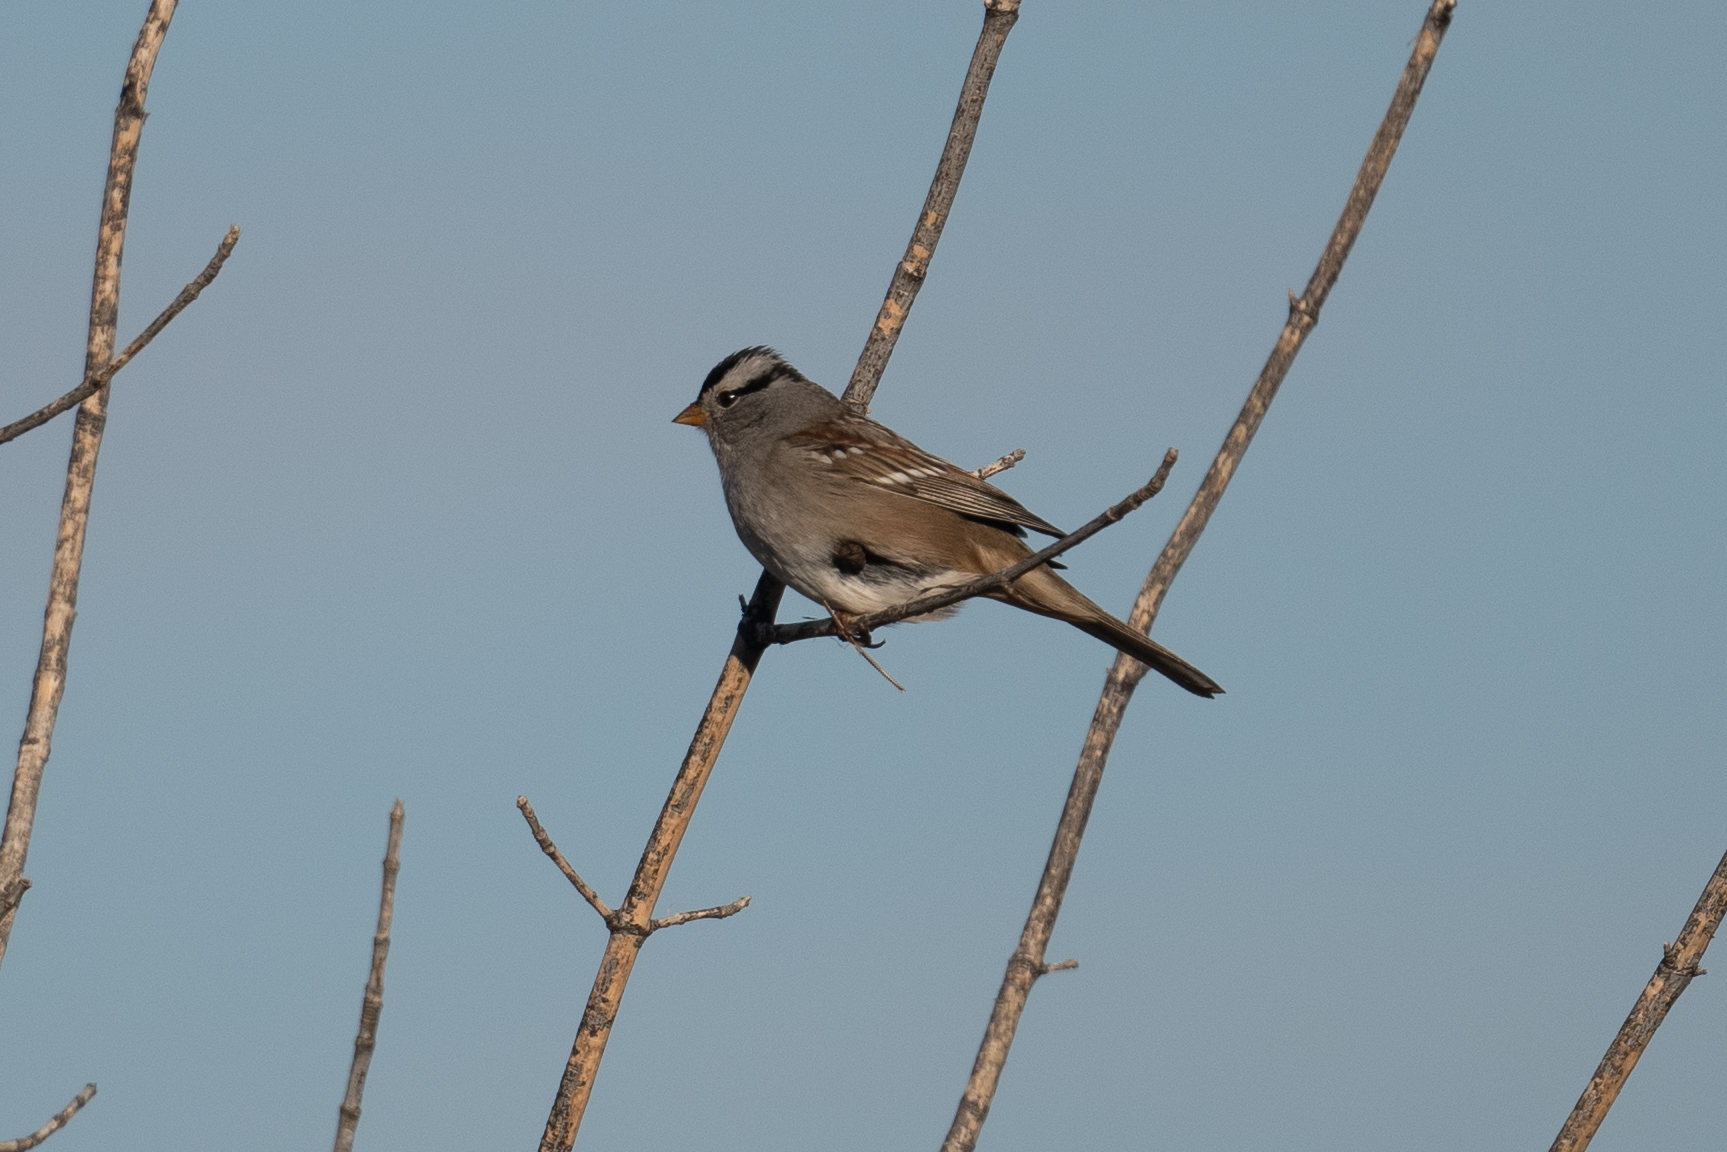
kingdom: Animalia
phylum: Chordata
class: Aves
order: Passeriformes
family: Passerellidae
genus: Zonotrichia
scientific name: Zonotrichia leucophrys
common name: White-crowned sparrow
